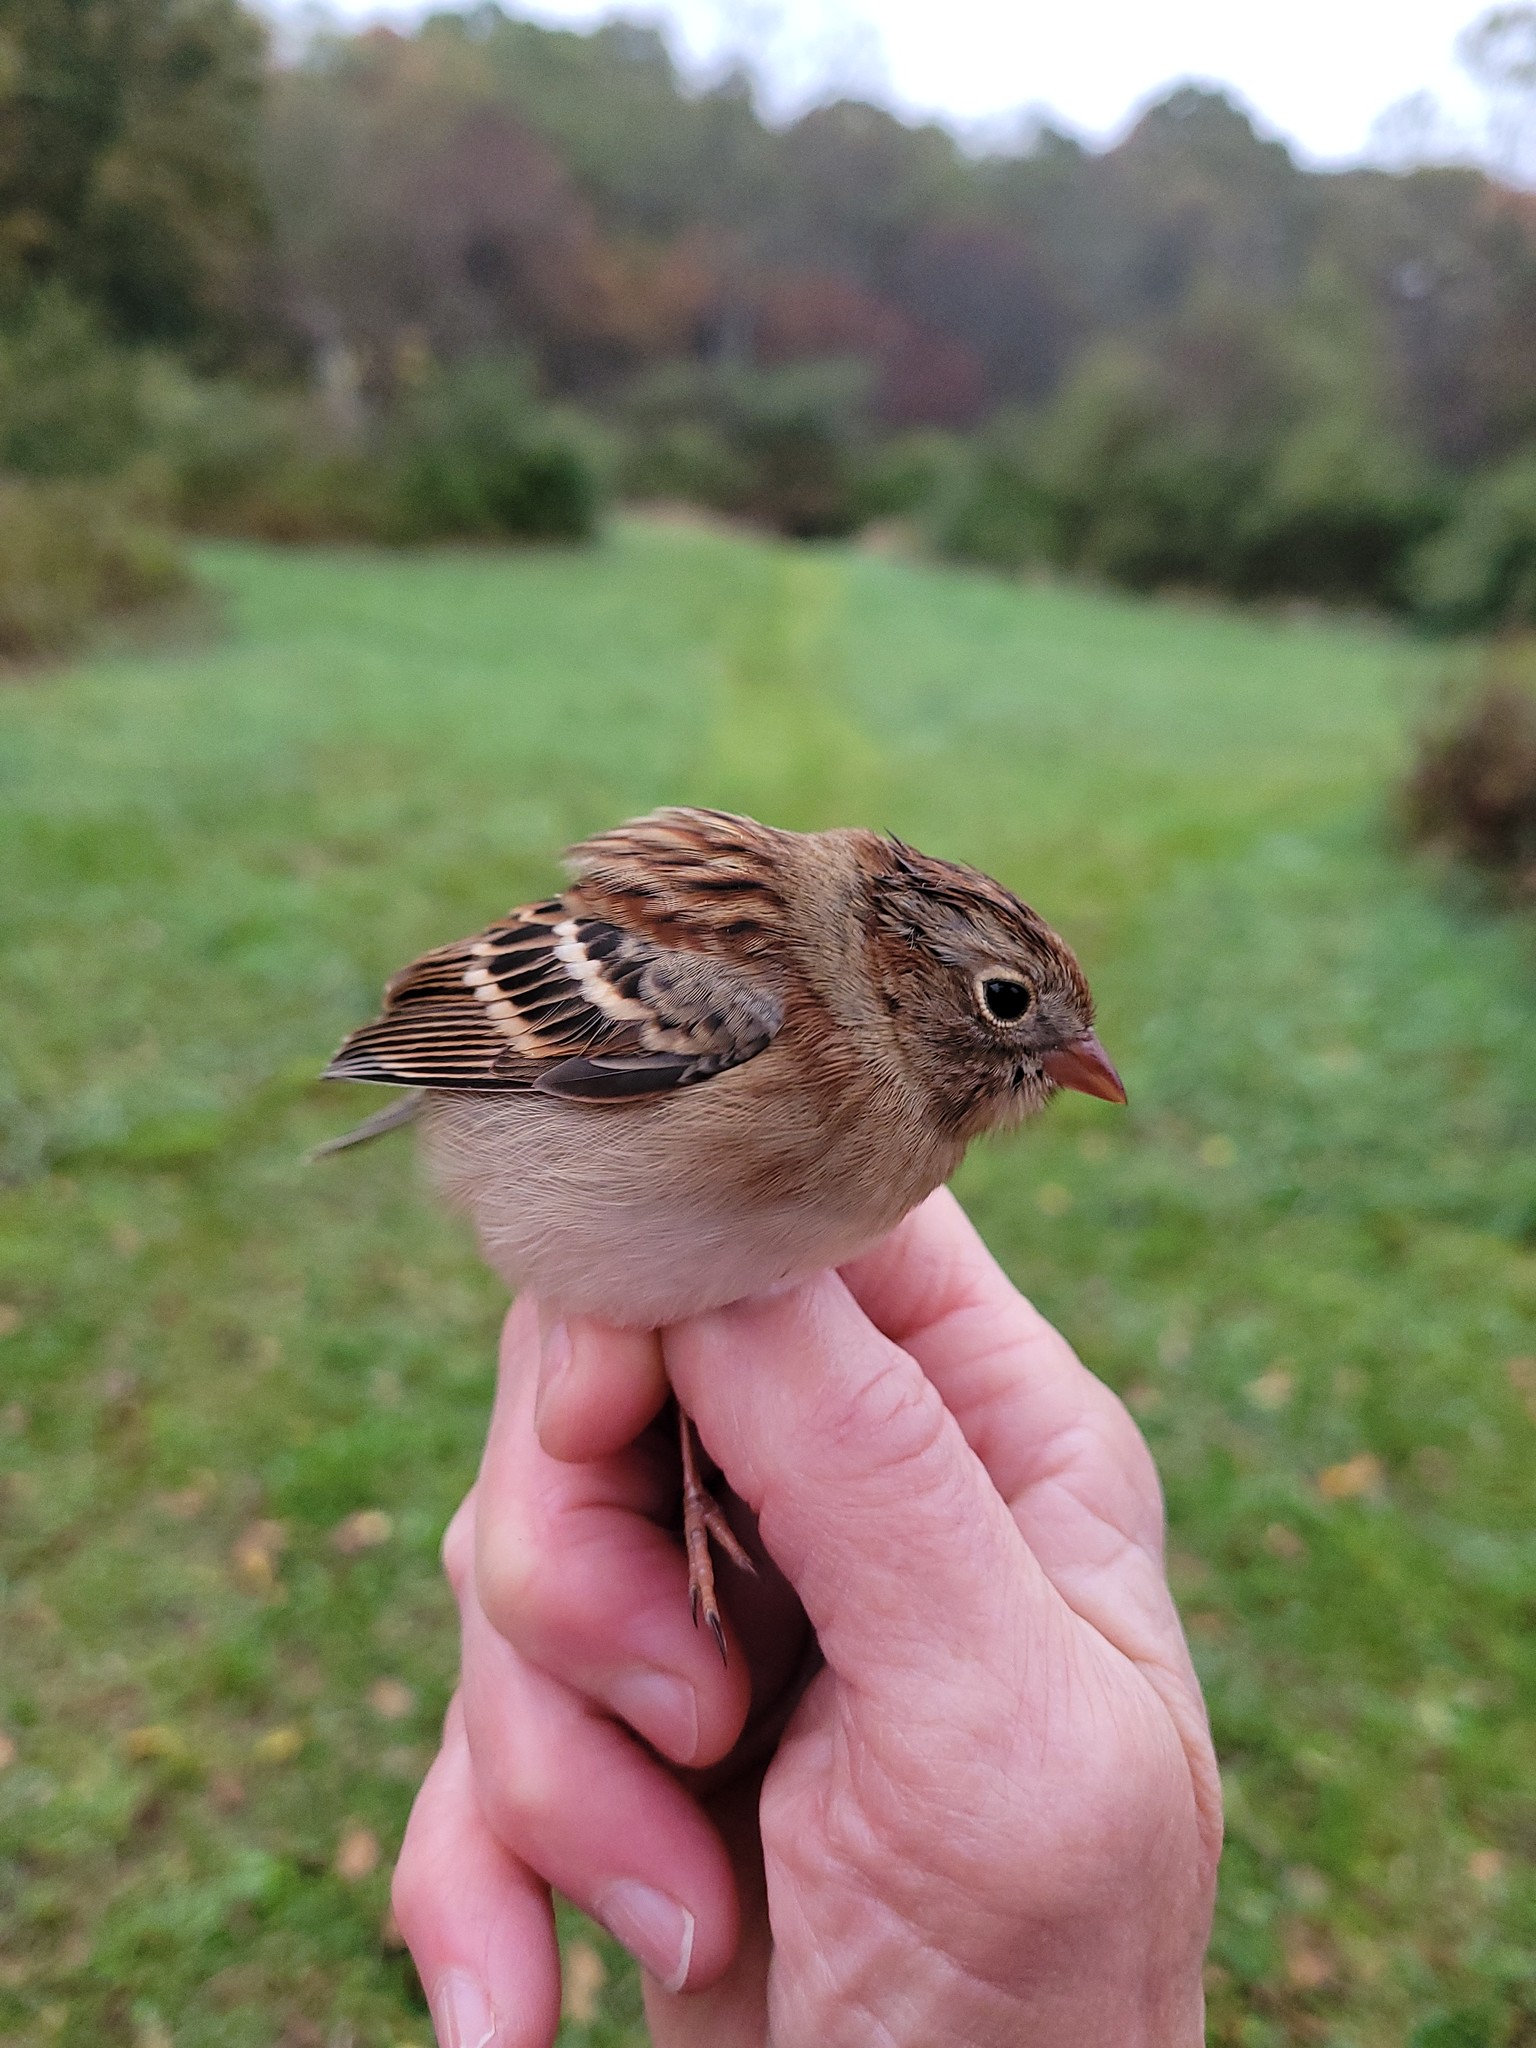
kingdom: Animalia
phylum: Chordata
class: Aves
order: Passeriformes
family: Passerellidae
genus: Spizella
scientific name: Spizella pusilla
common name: Field sparrow
